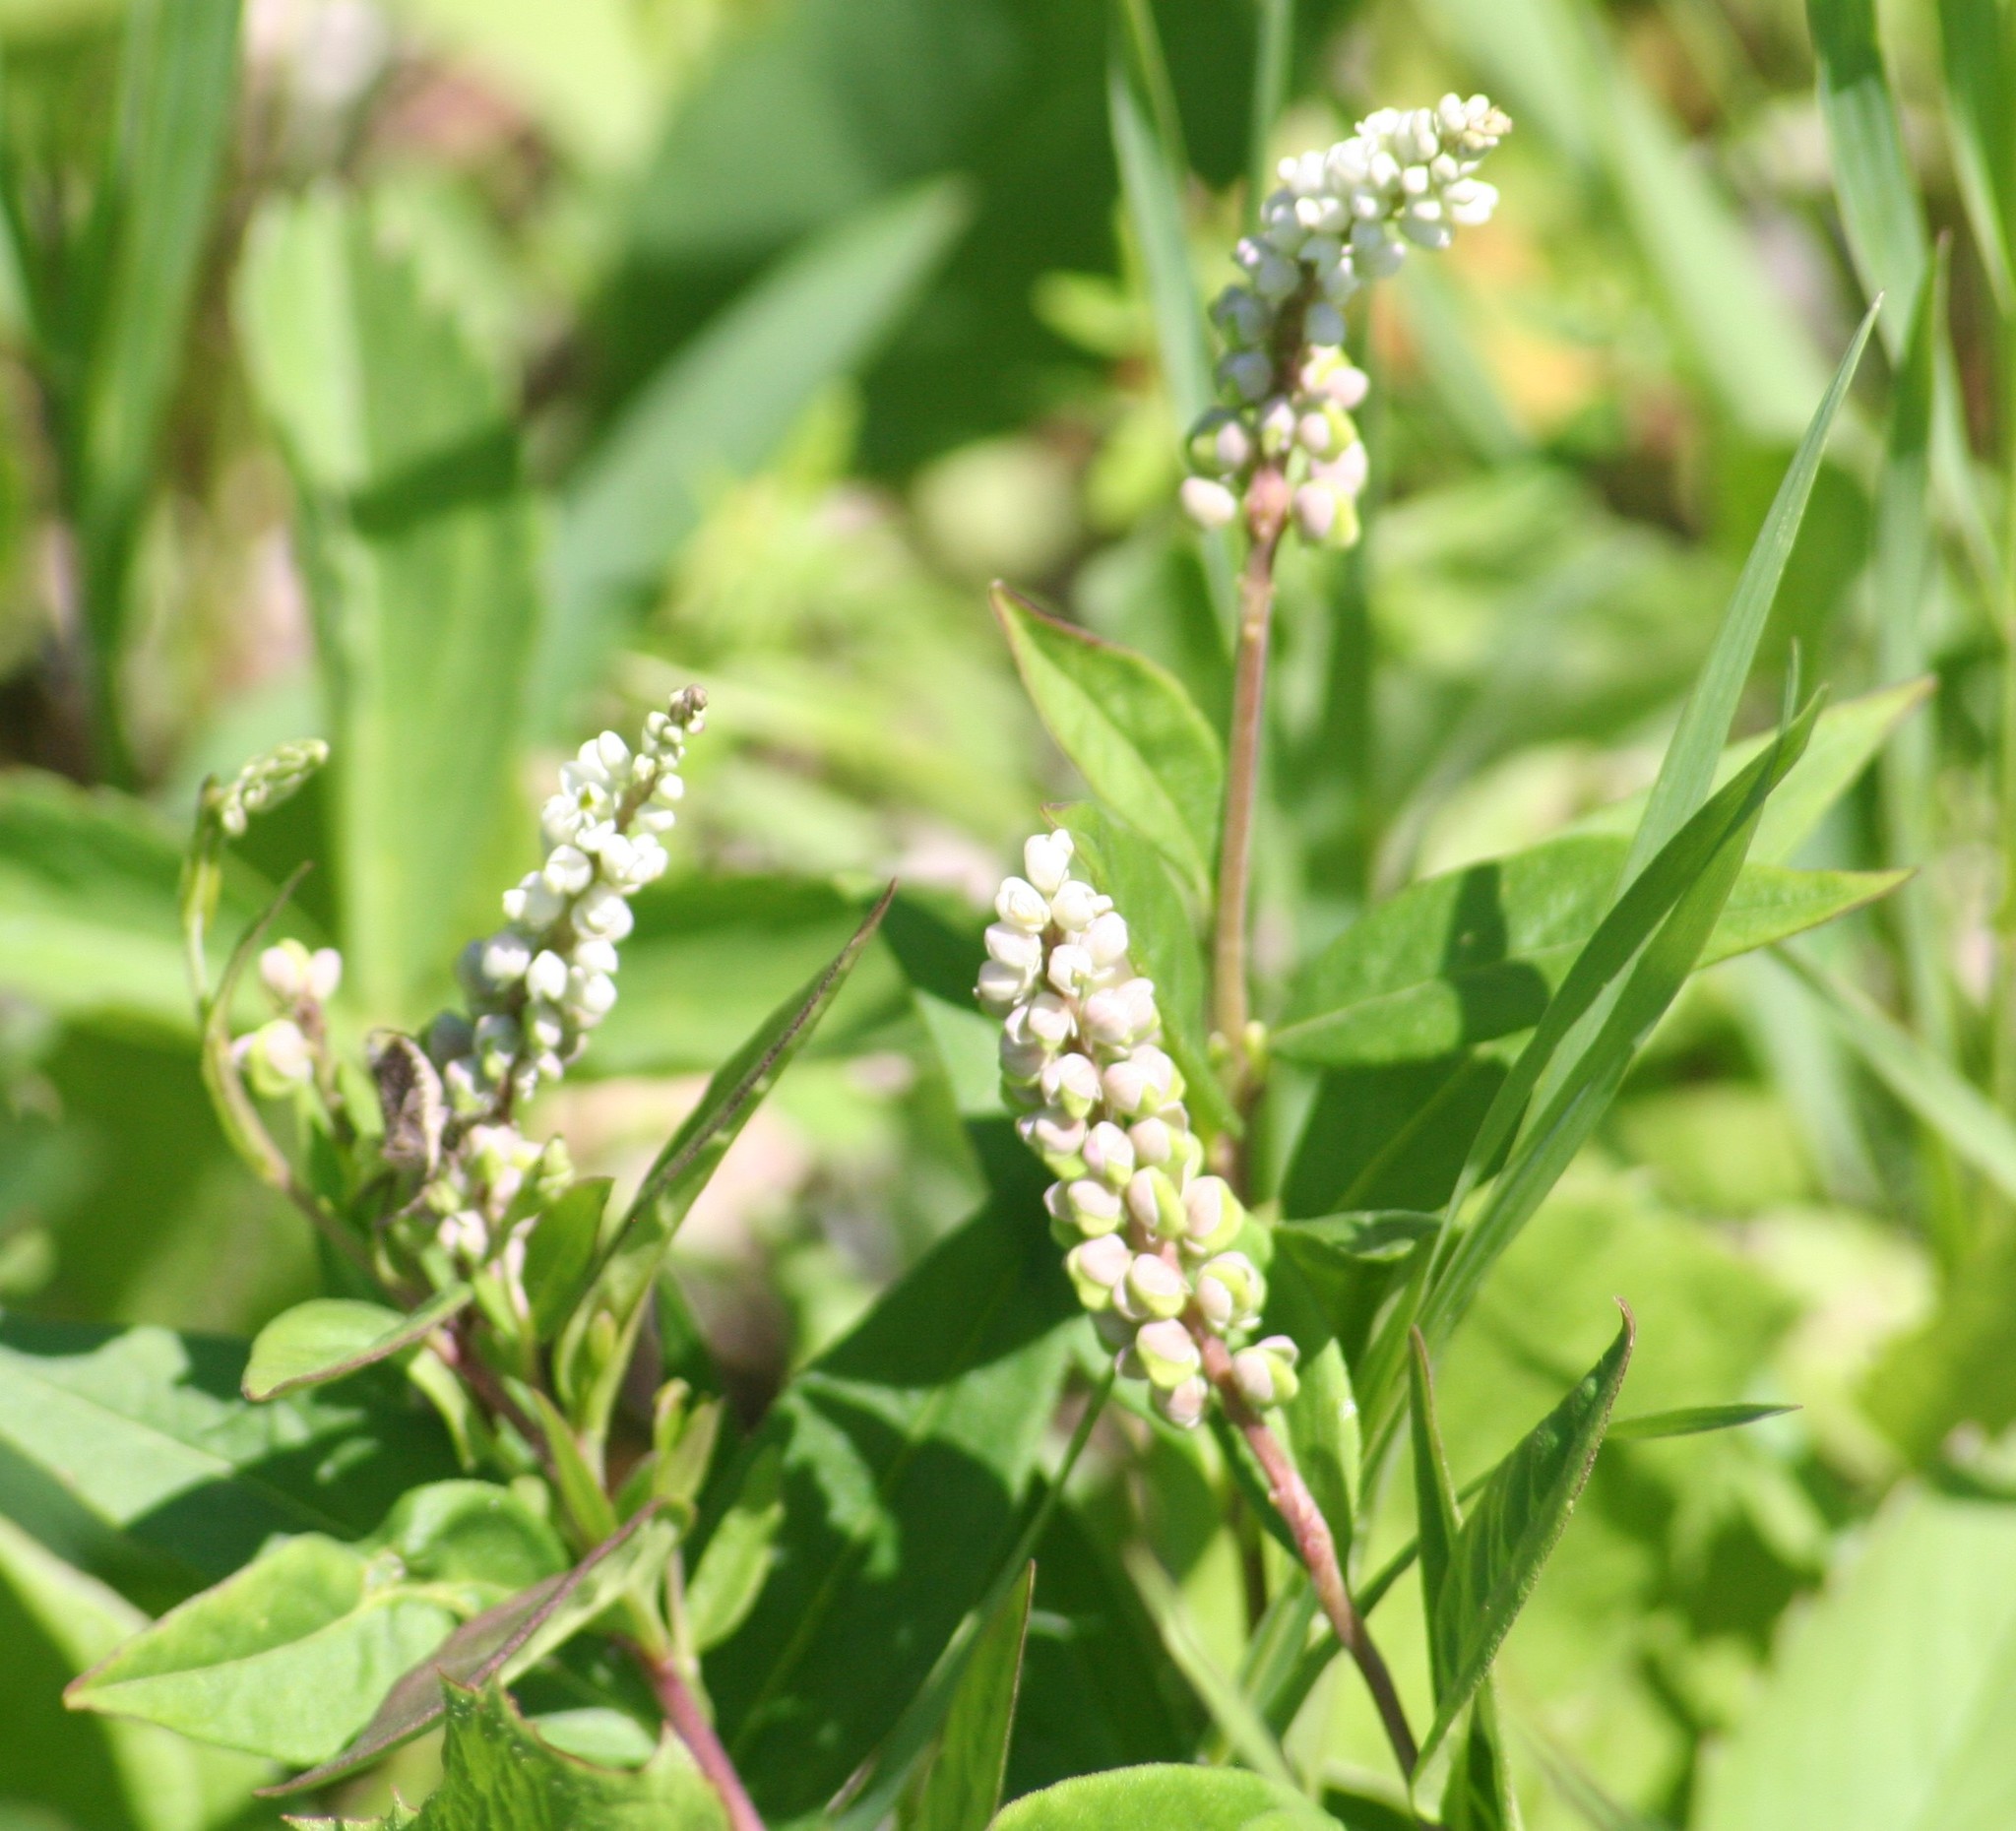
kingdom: Plantae
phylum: Tracheophyta
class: Magnoliopsida
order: Fabales
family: Polygalaceae
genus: Polygala
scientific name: Polygala senega
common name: Seneca snakeroot
